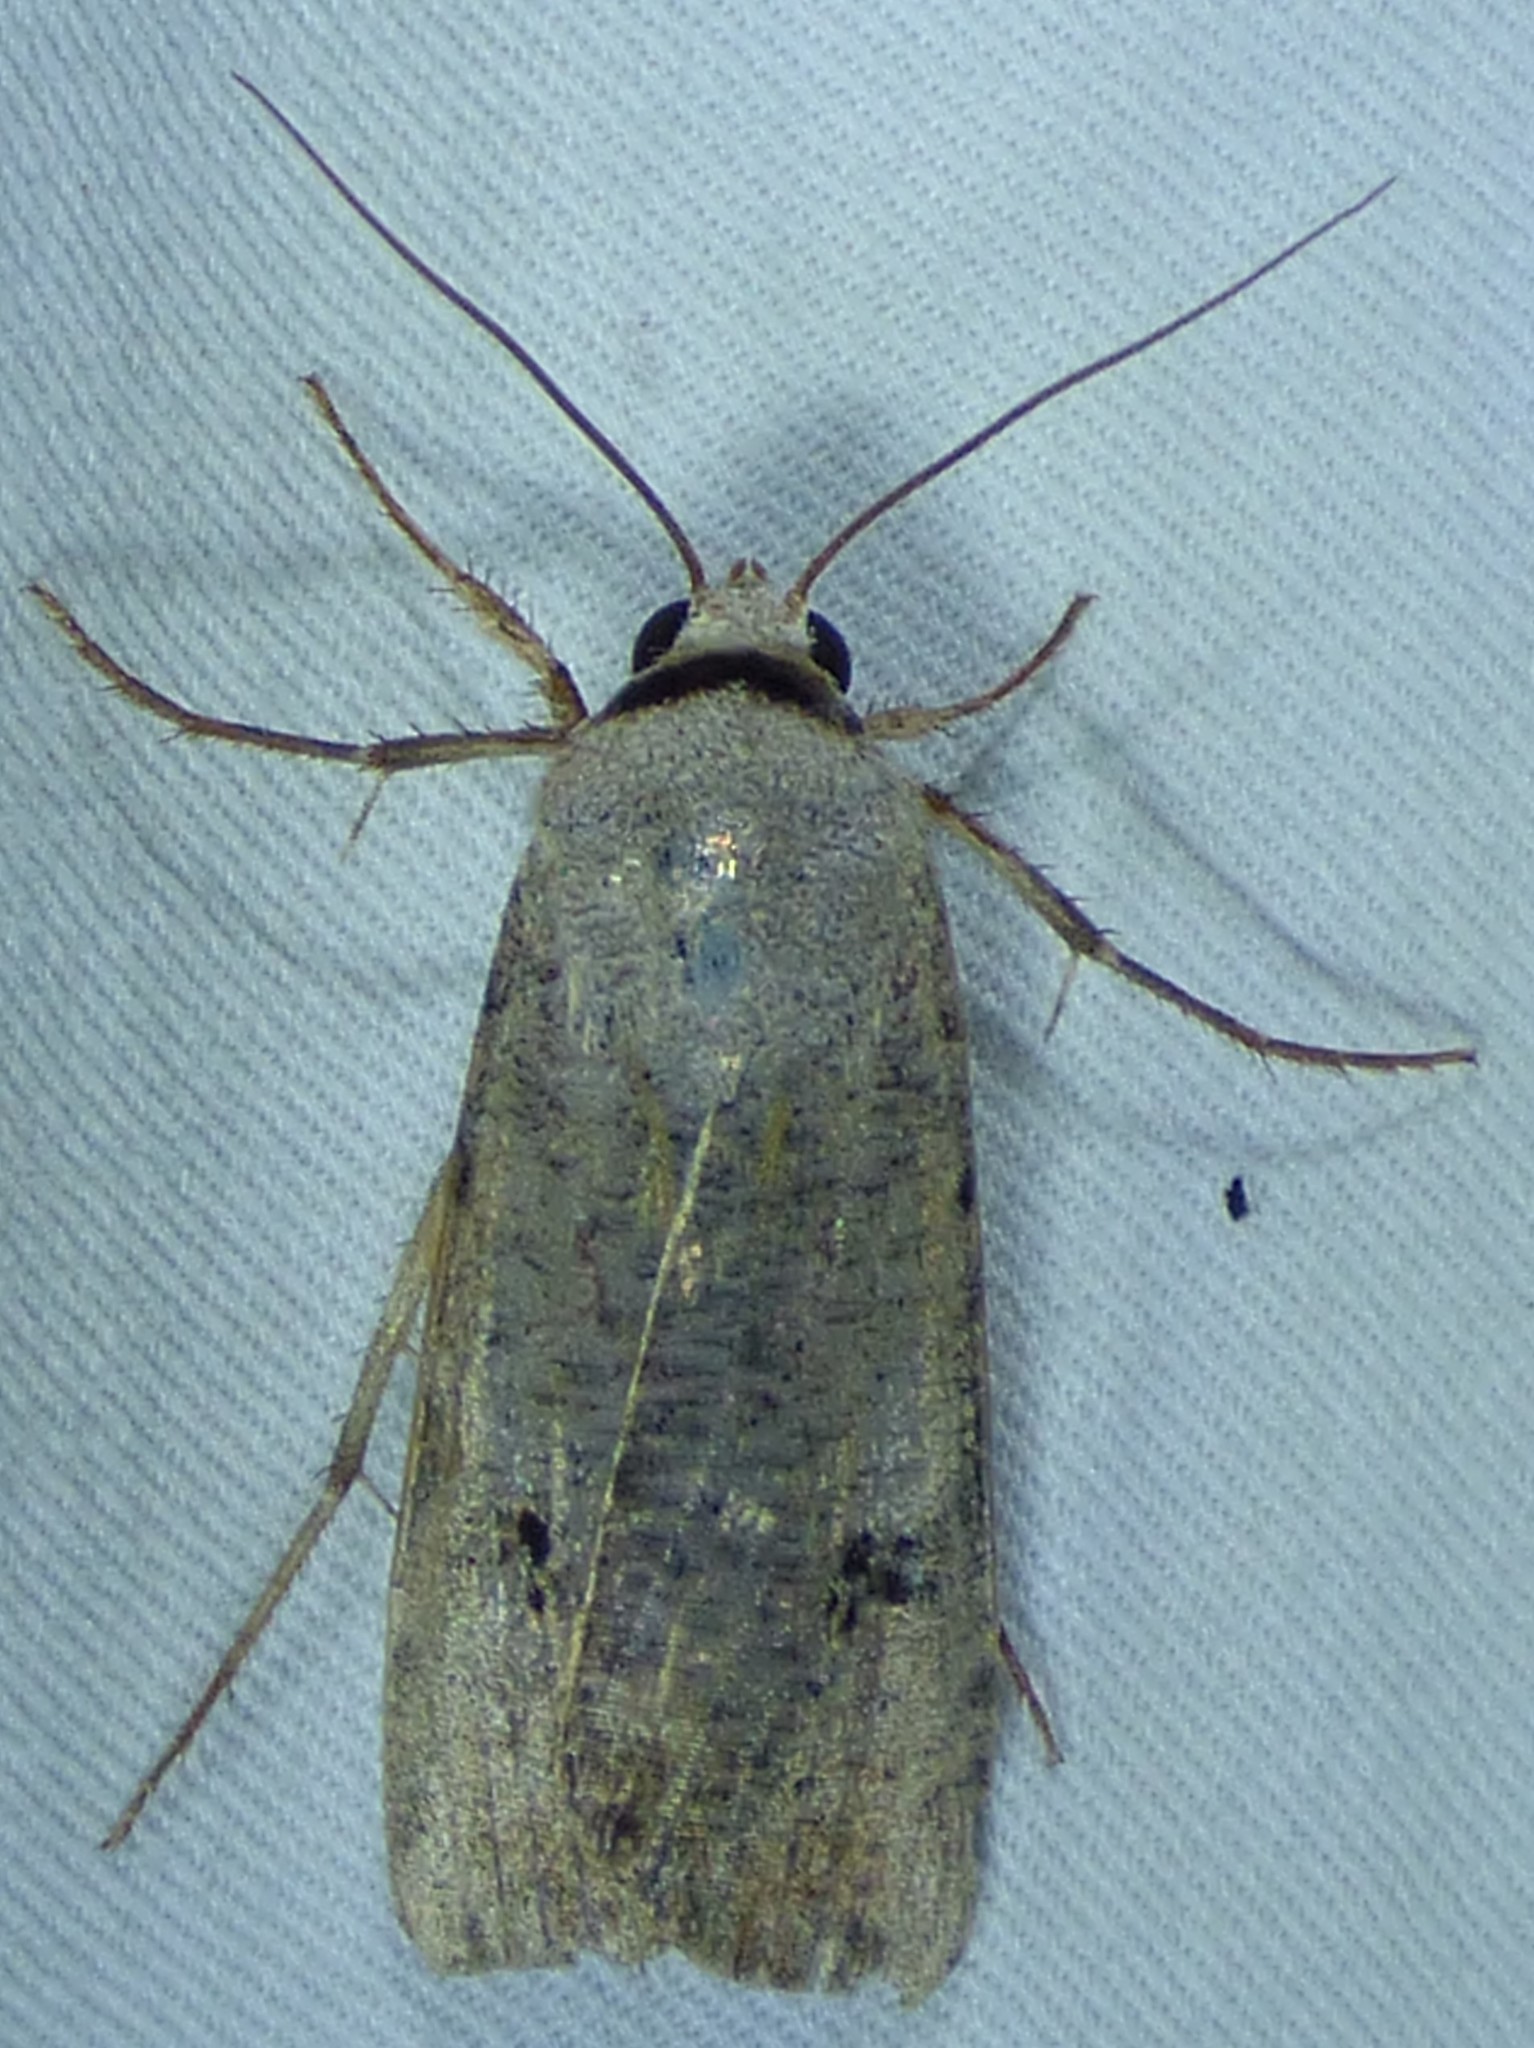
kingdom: Animalia
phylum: Arthropoda
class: Insecta
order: Lepidoptera
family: Noctuidae
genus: Anicla
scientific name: Anicla infecta
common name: Green cutworm
